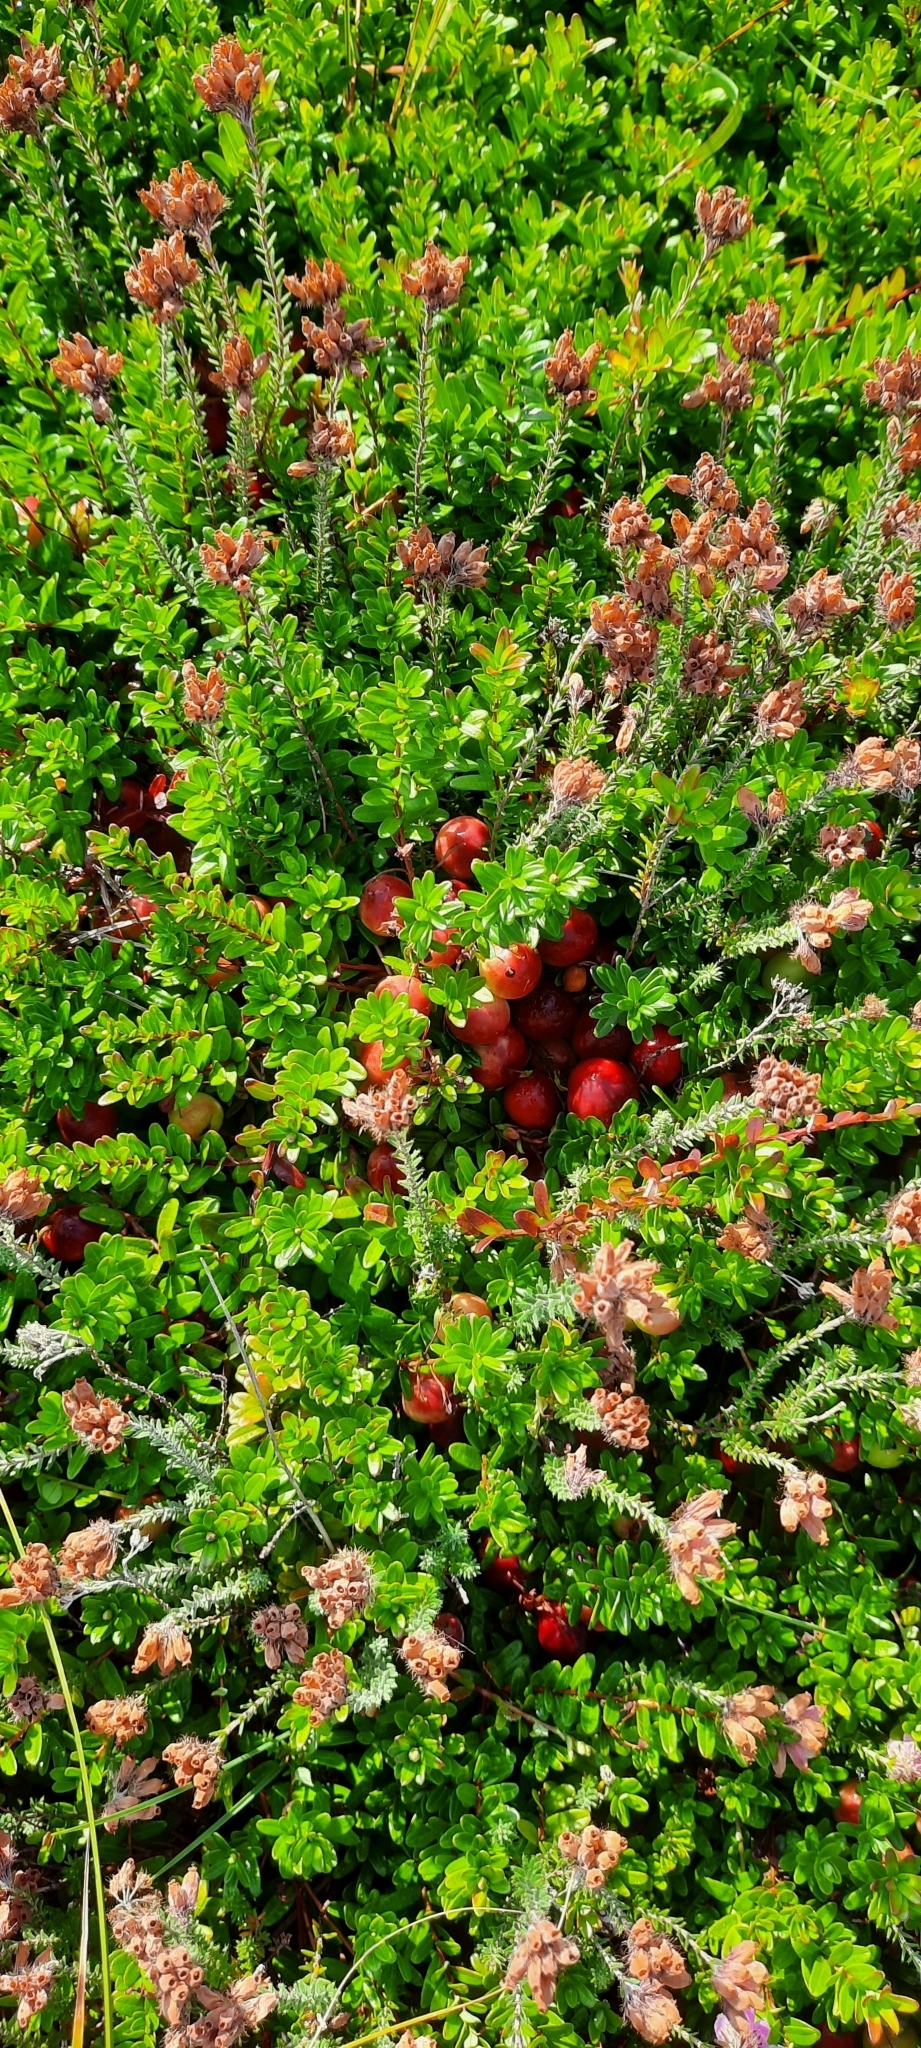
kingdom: Plantae
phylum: Tracheophyta
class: Magnoliopsida
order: Ericales
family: Ericaceae
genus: Vaccinium
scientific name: Vaccinium macrocarpon
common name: American cranberry
